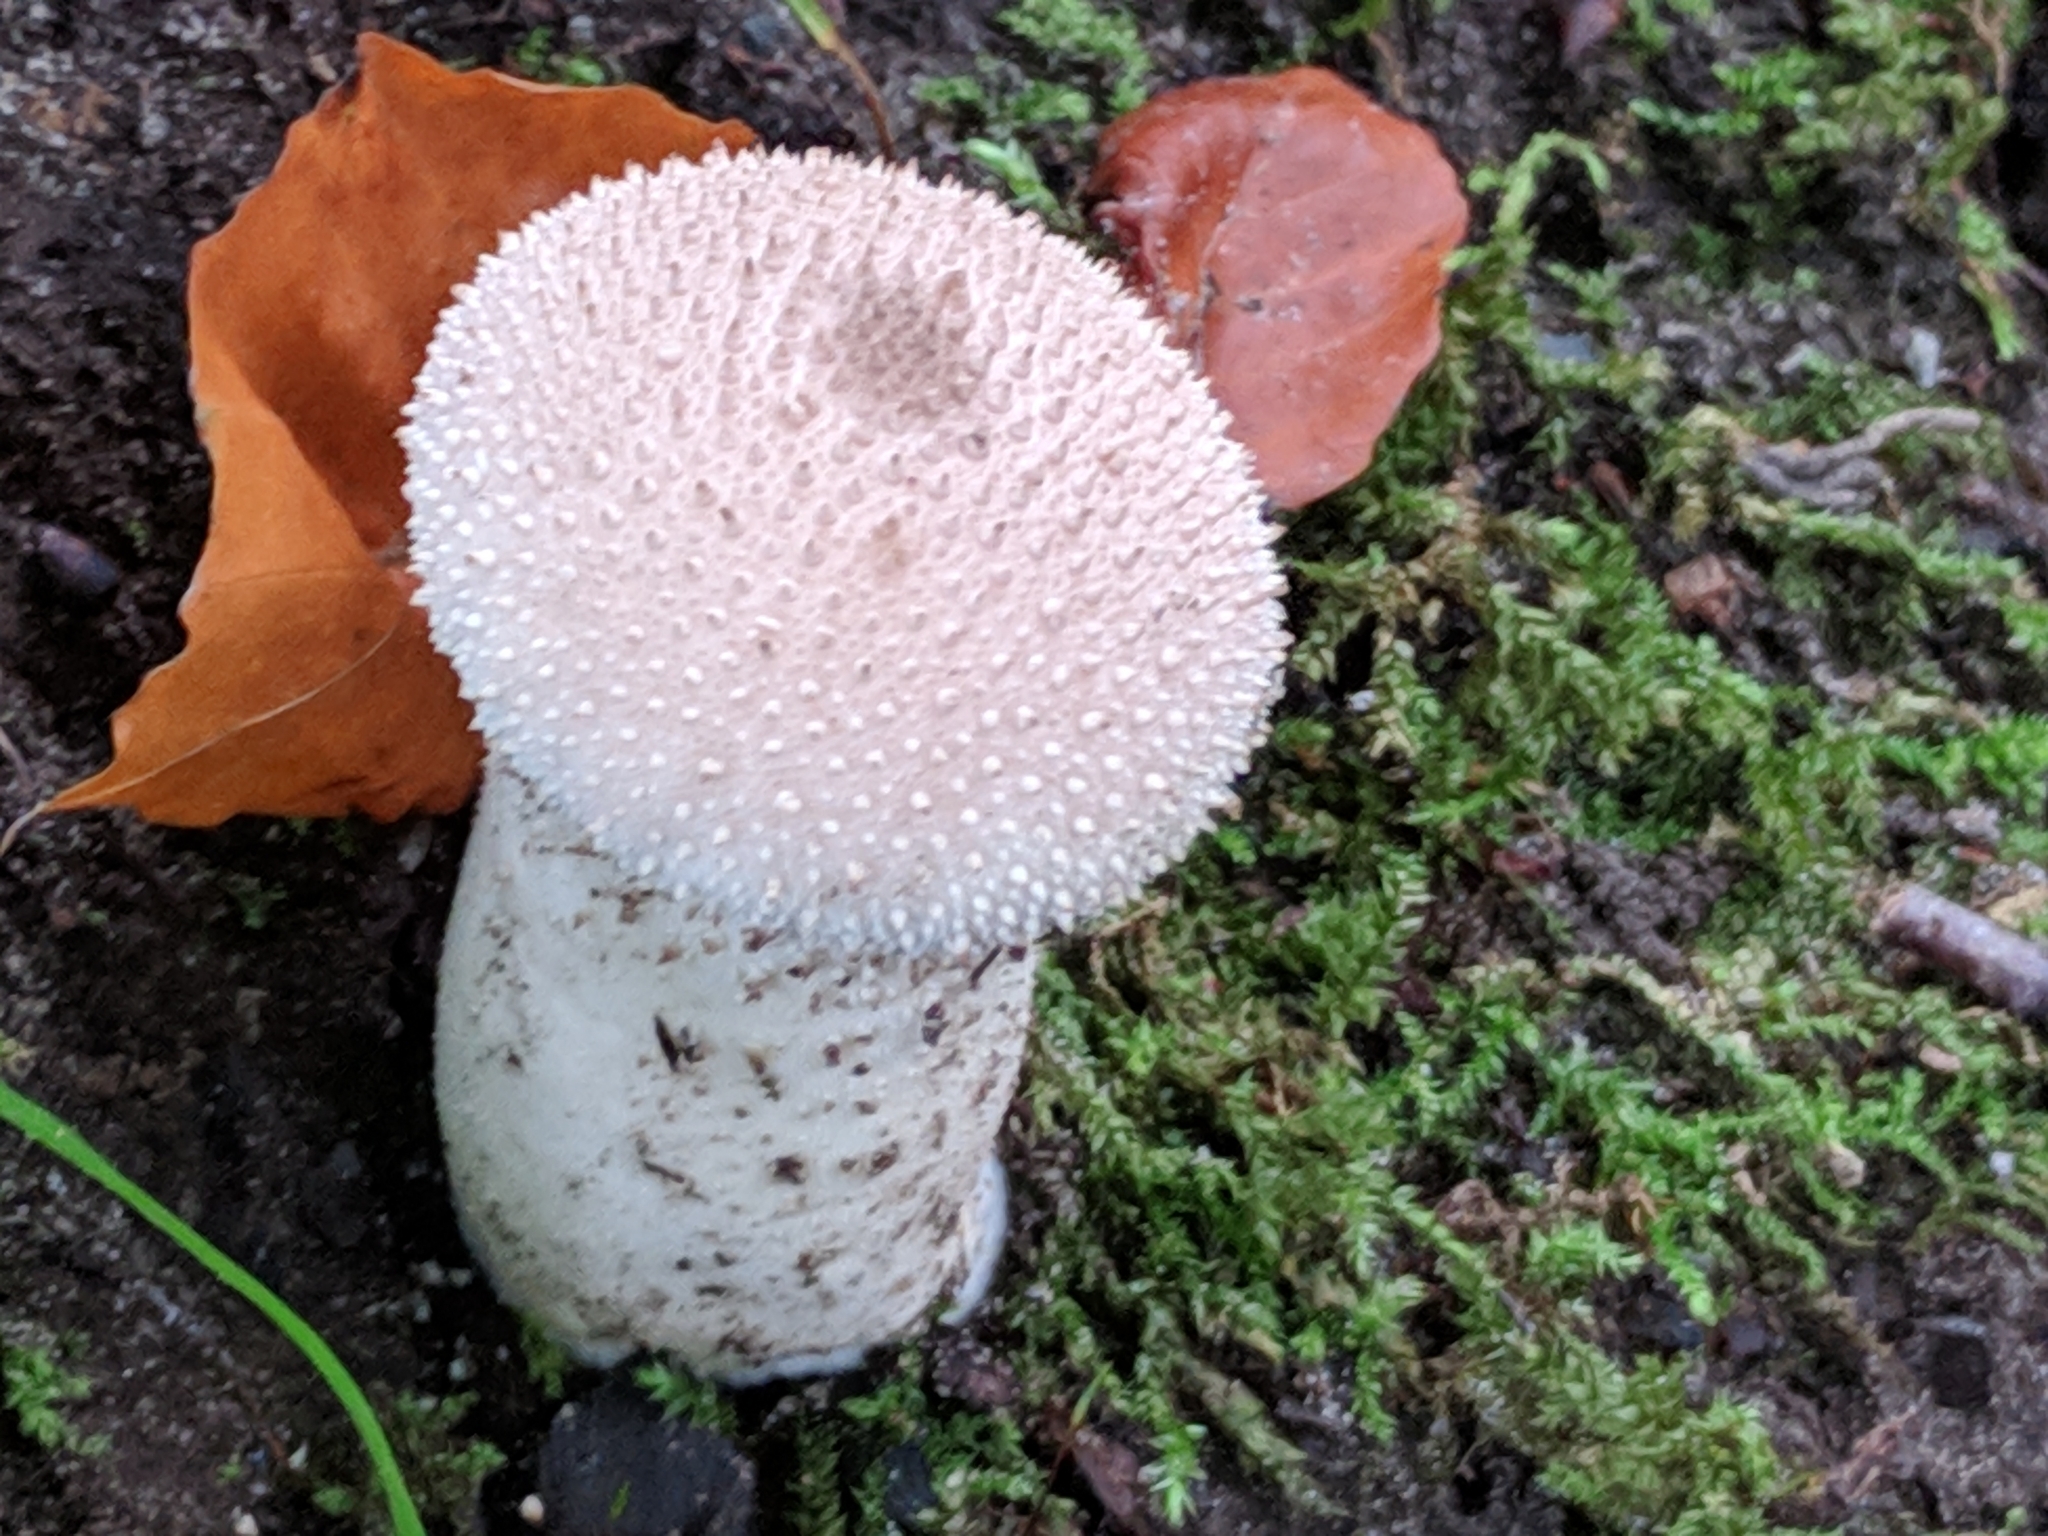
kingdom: Fungi
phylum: Basidiomycota
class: Agaricomycetes
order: Agaricales
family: Lycoperdaceae
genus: Lycoperdon
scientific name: Lycoperdon perlatum
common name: Common puffball
